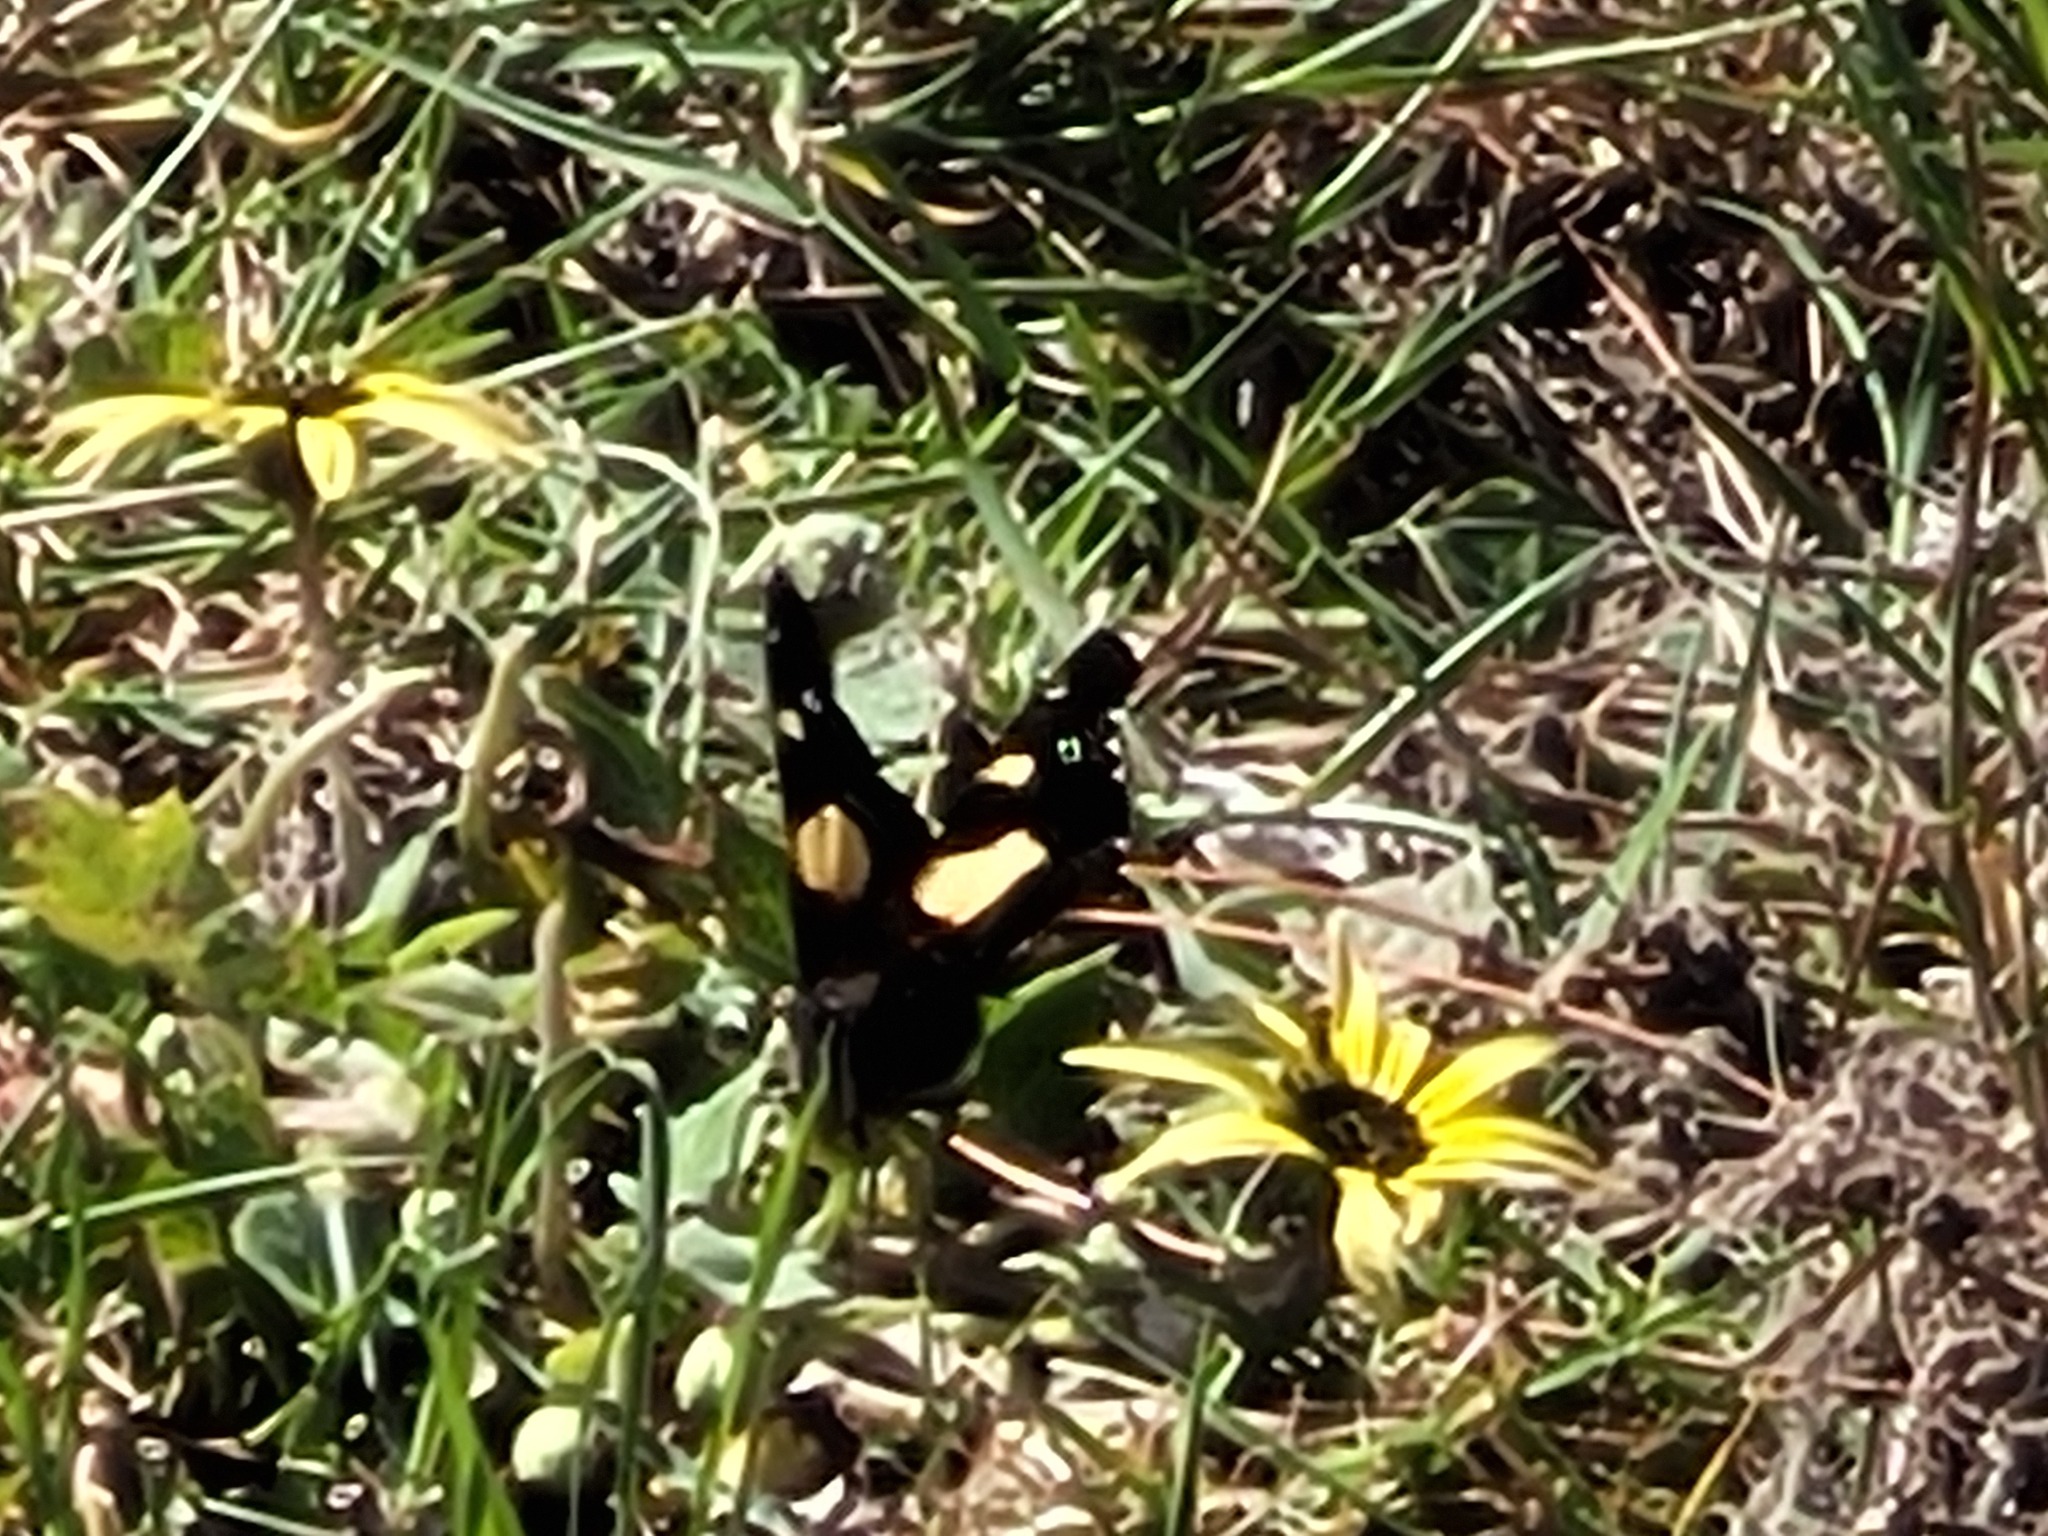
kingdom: Animalia
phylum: Arthropoda
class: Insecta
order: Lepidoptera
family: Nymphalidae
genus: Vanessa
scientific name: Vanessa itea
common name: Yellow admiral
